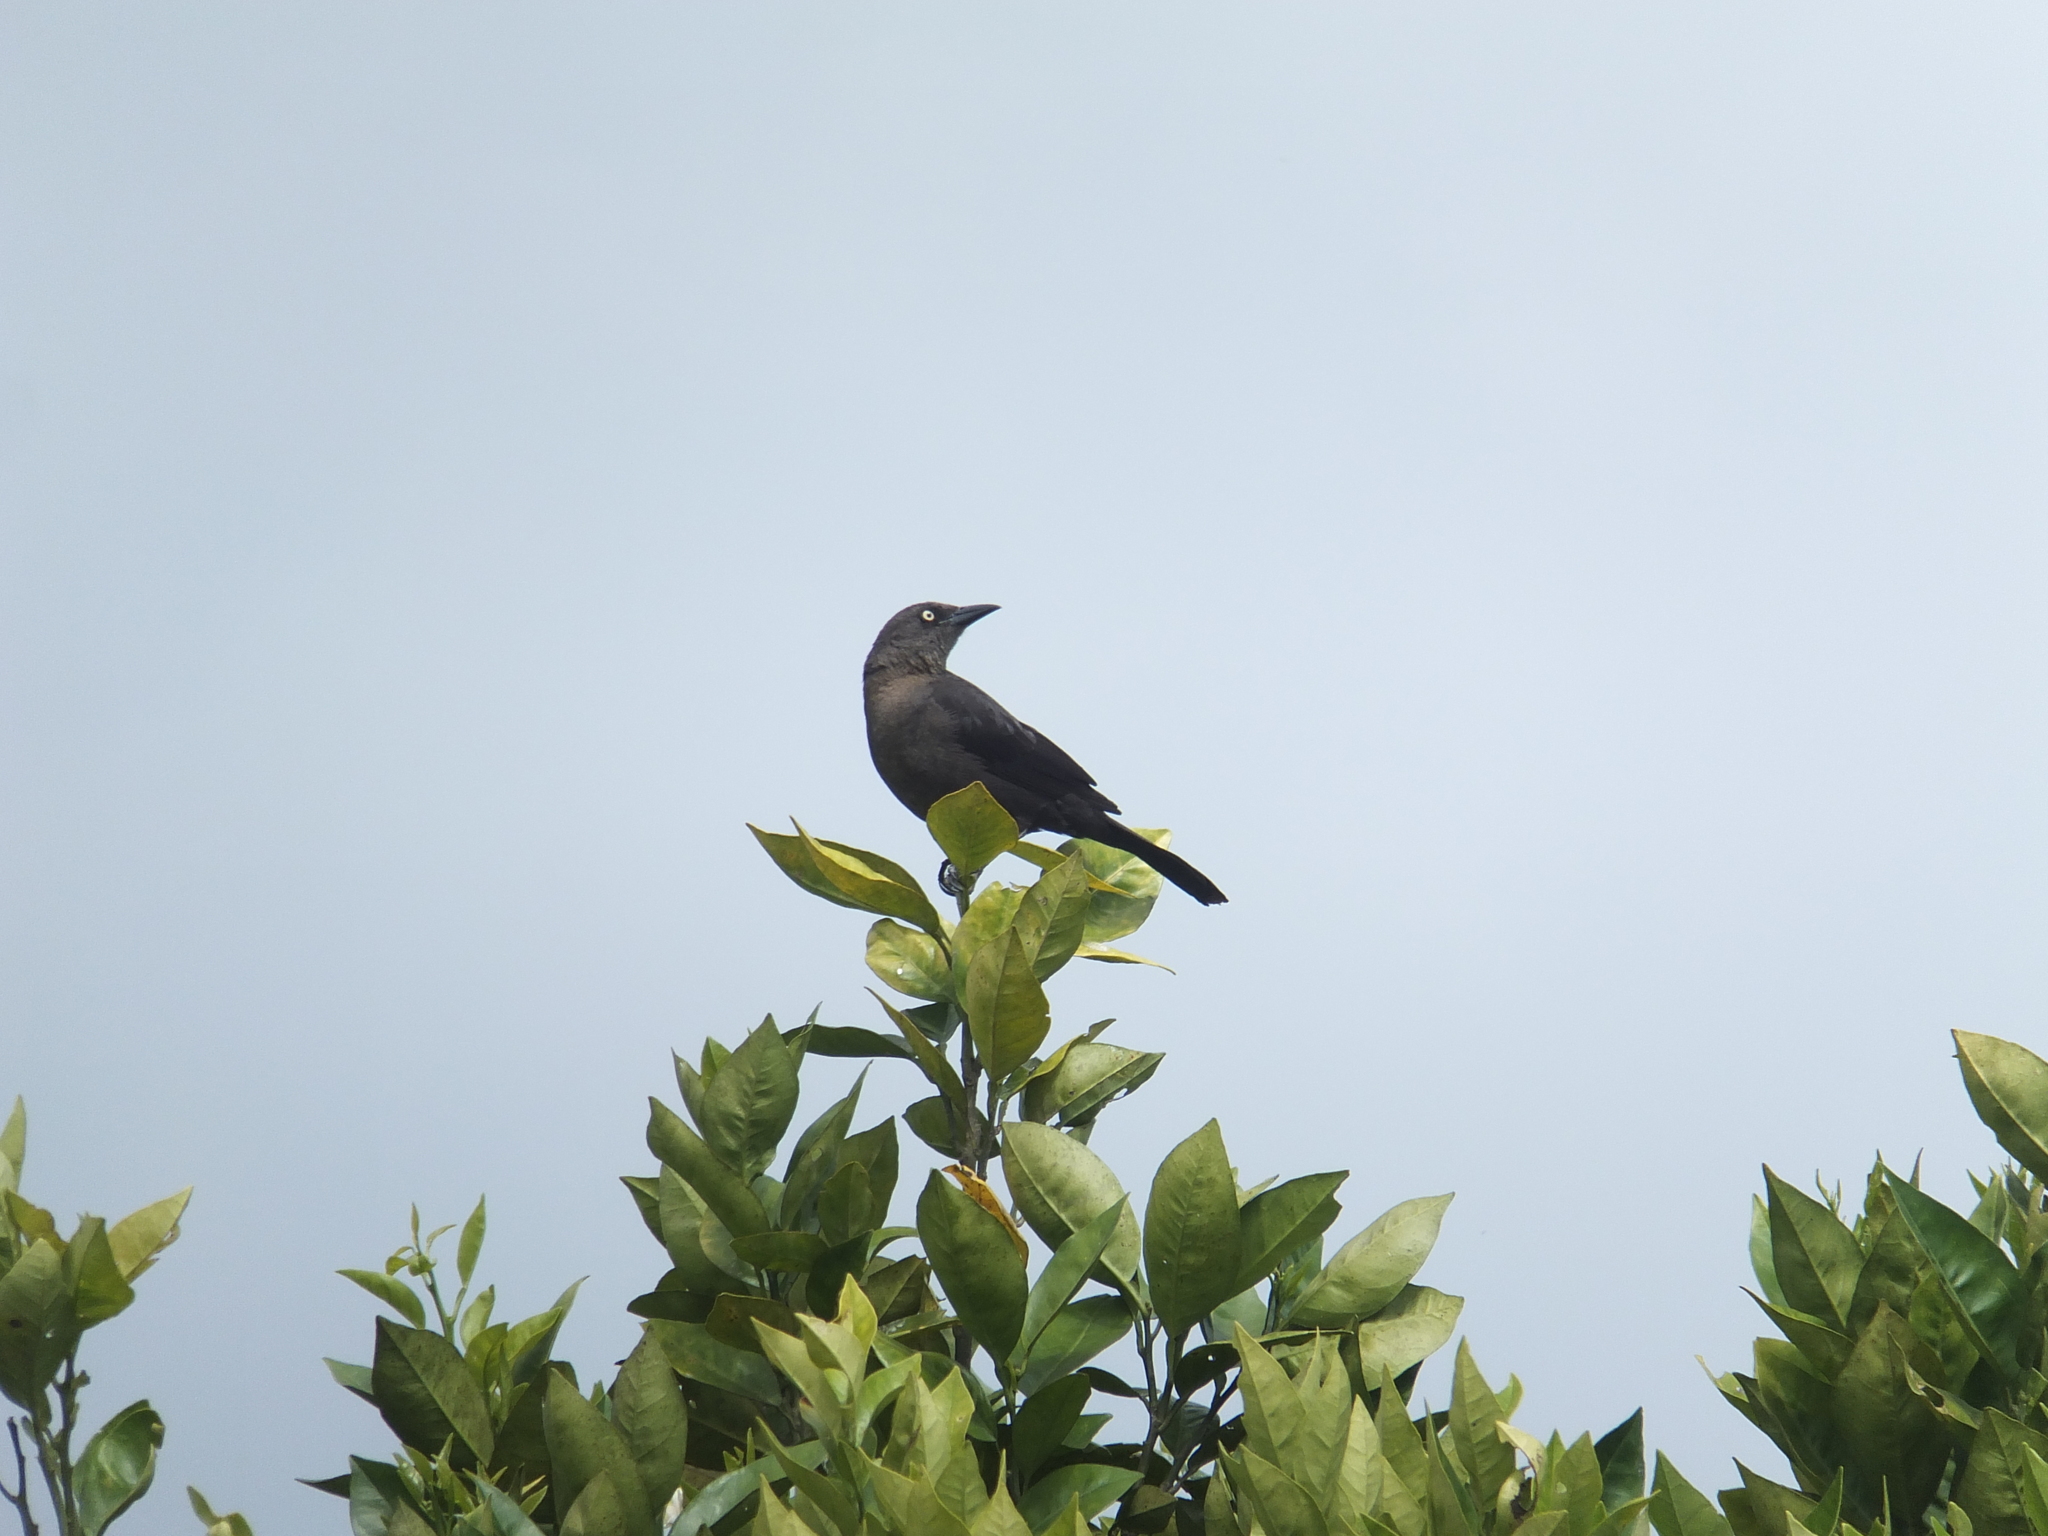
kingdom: Animalia
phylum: Chordata
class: Aves
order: Passeriformes
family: Icteridae
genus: Quiscalus
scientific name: Quiscalus lugubris
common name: Carib grackle
